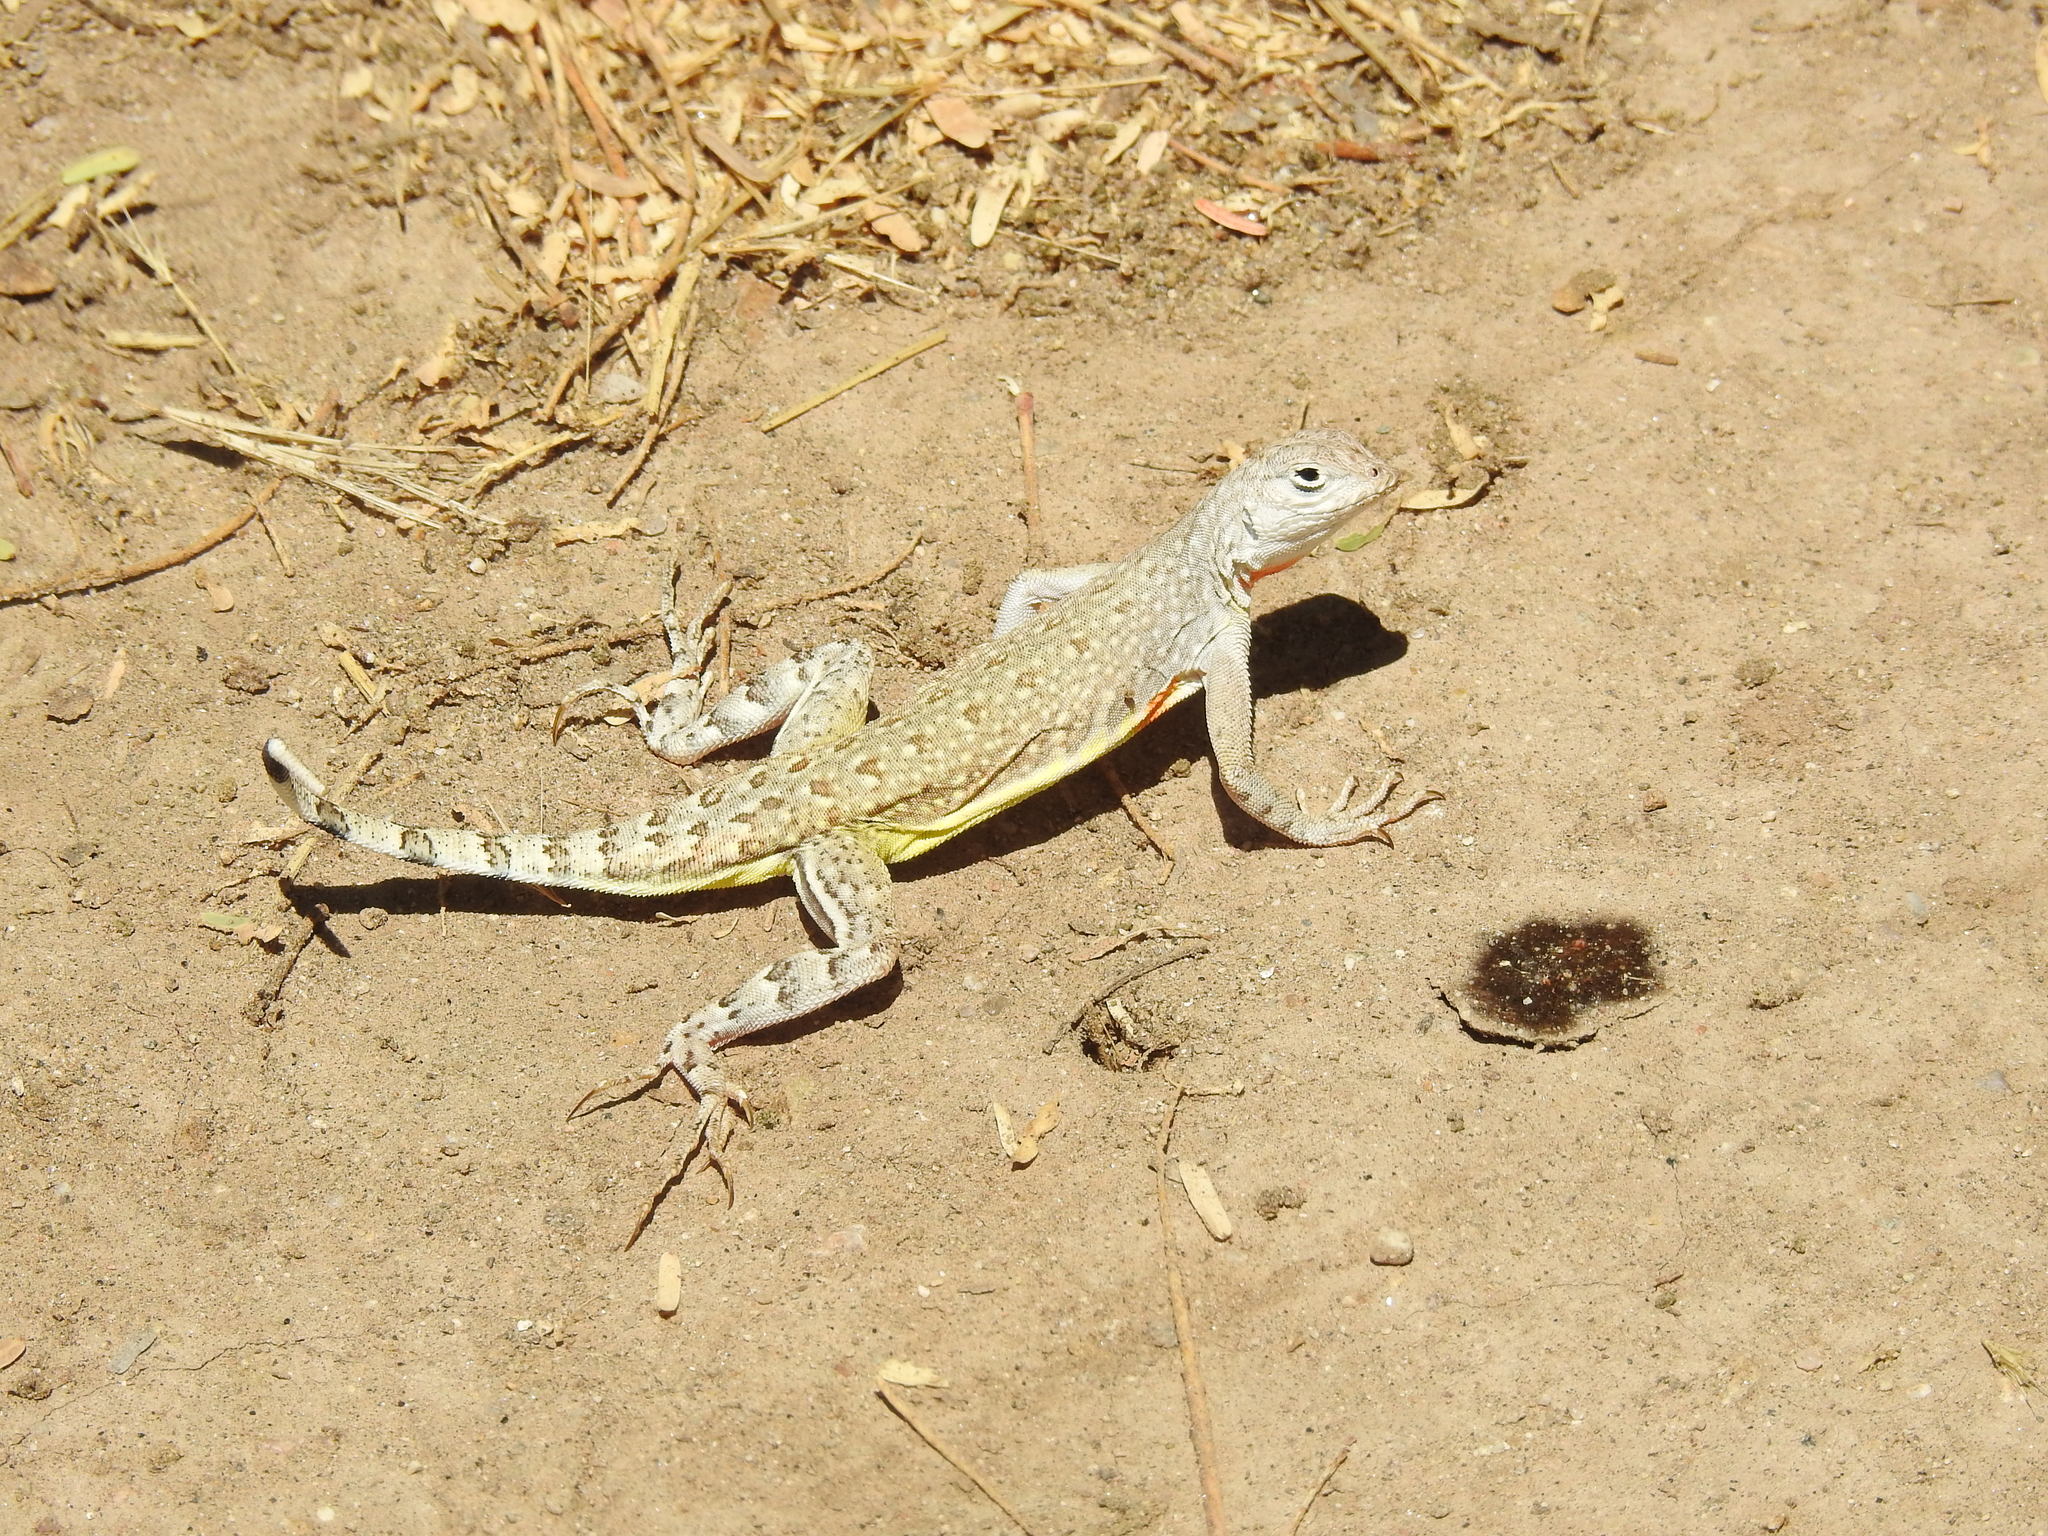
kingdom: Animalia
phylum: Chordata
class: Squamata
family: Phrynosomatidae
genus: Callisaurus
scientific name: Callisaurus draconoides
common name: Zebra-tailed lizard
